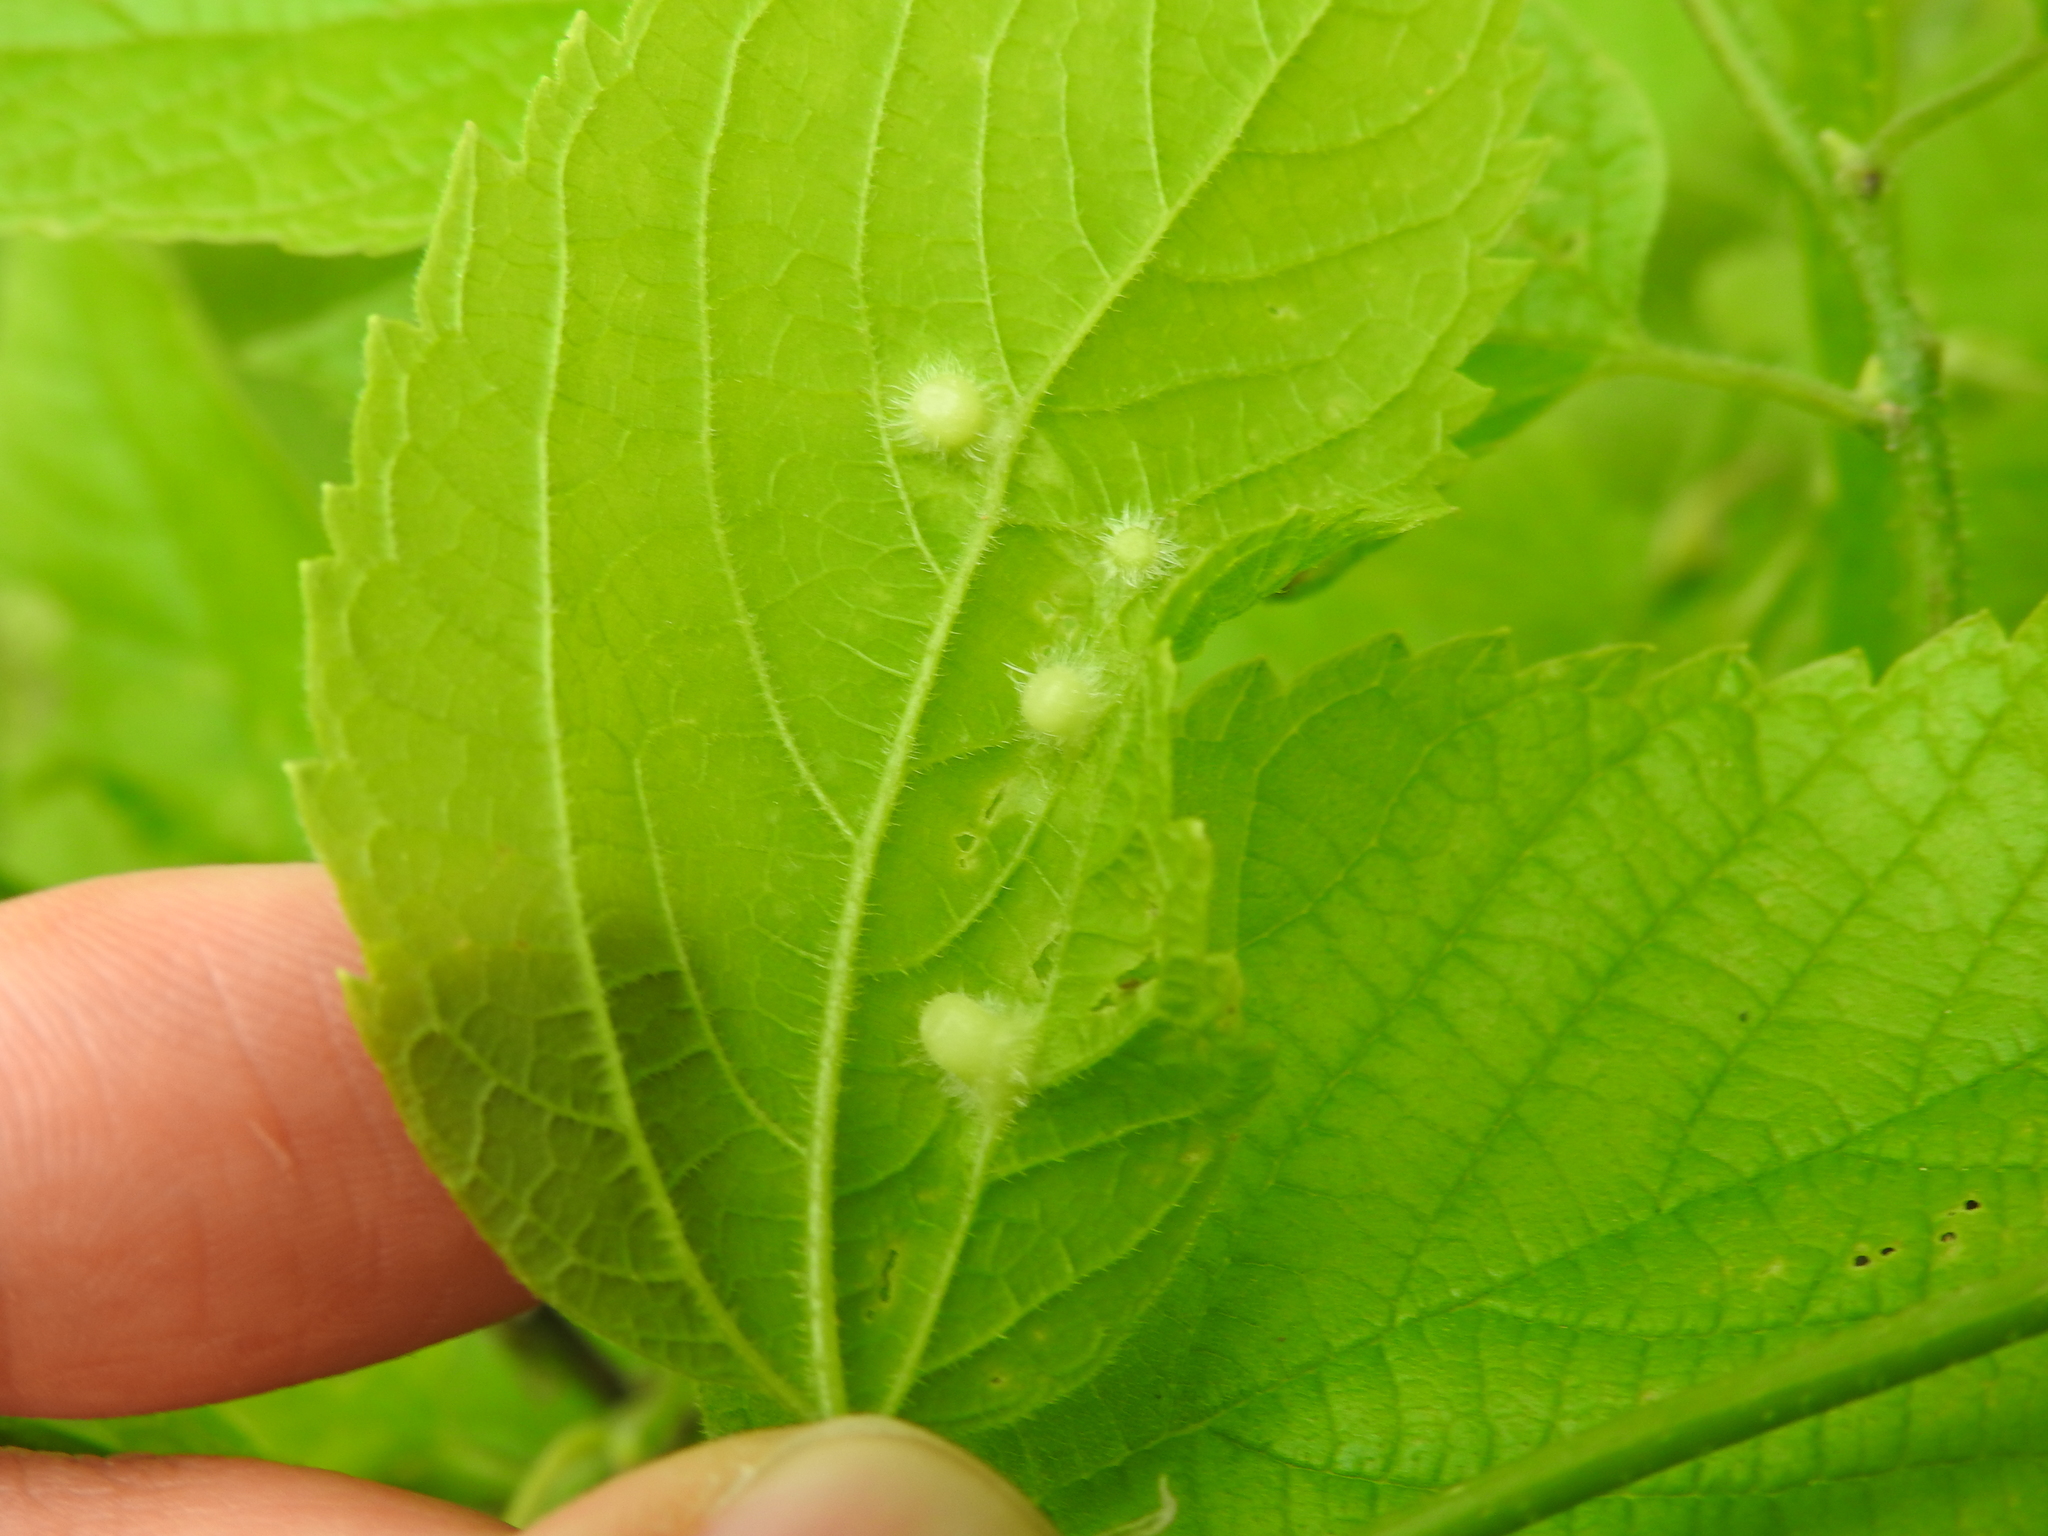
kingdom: Animalia
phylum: Arthropoda
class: Insecta
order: Hemiptera
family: Aphalaridae
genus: Pachypsylla
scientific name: Pachypsylla celtidismamma
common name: Hackberry nipplegall psyllid
